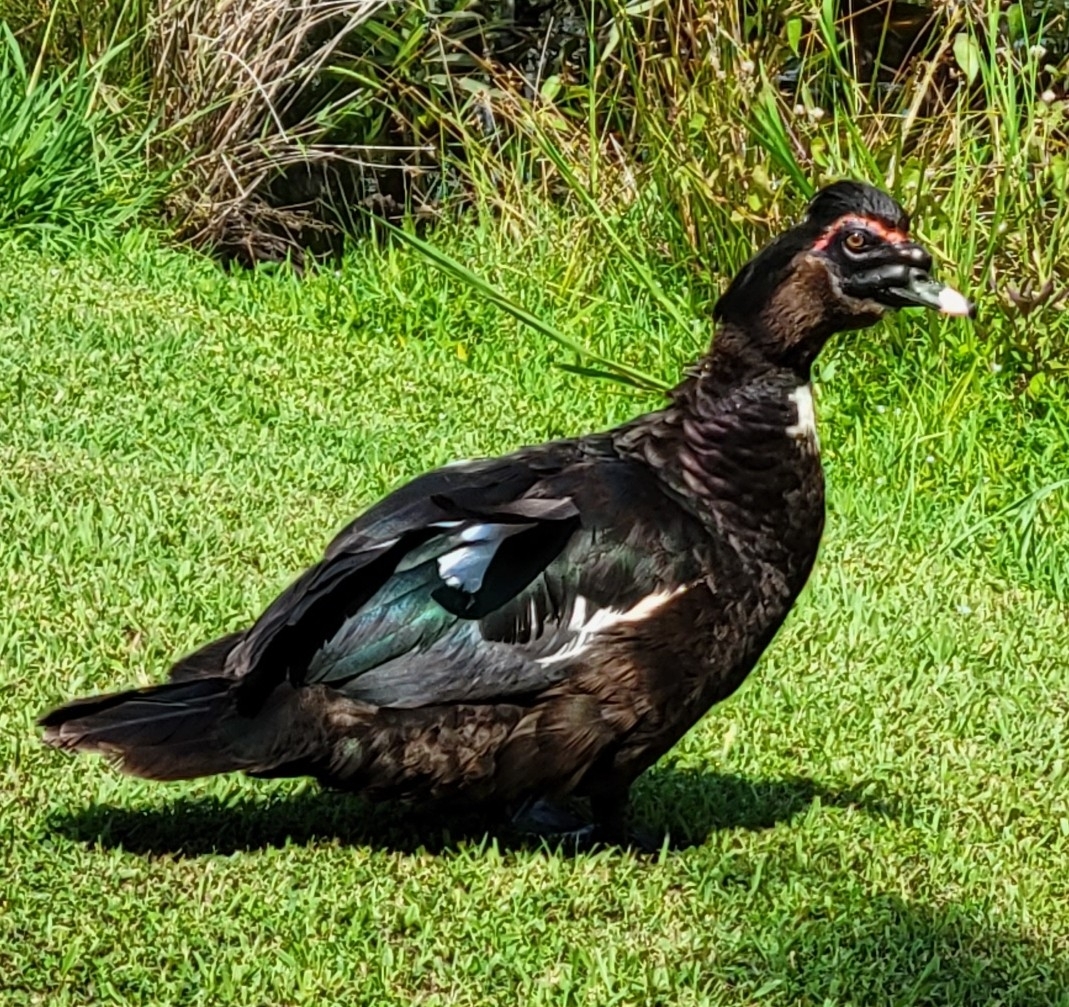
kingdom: Animalia
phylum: Chordata
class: Aves
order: Anseriformes
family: Anatidae
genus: Cairina
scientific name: Cairina moschata
